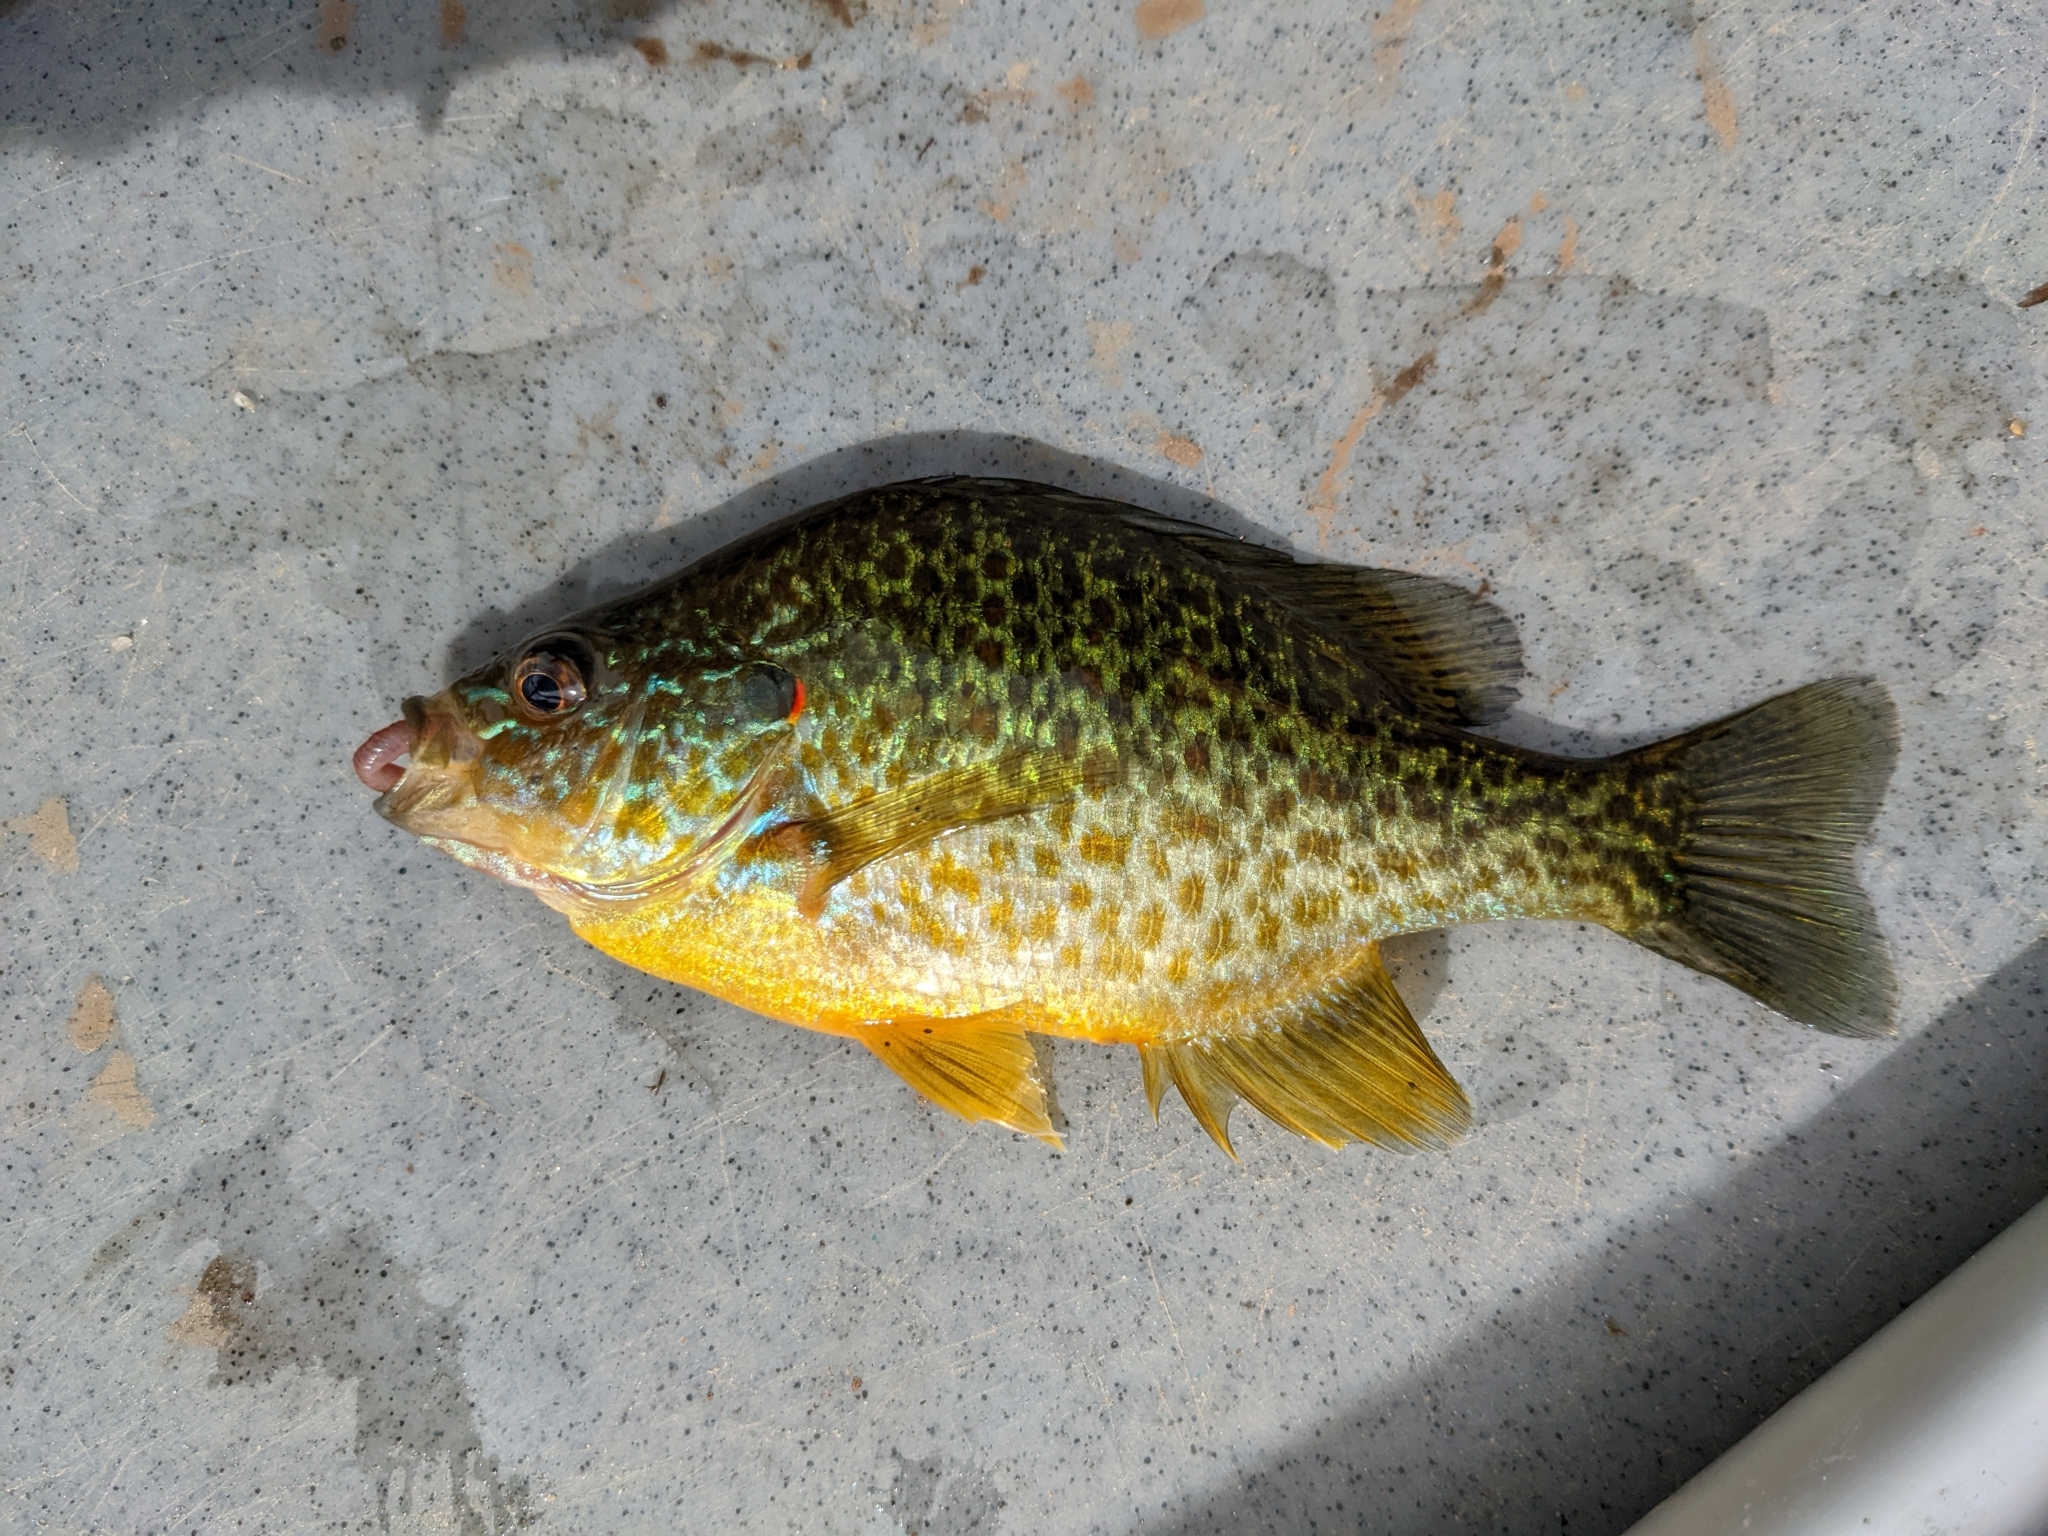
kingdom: Animalia
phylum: Chordata
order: Perciformes
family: Centrarchidae
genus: Lepomis
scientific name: Lepomis gibbosus
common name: Pumpkinseed
